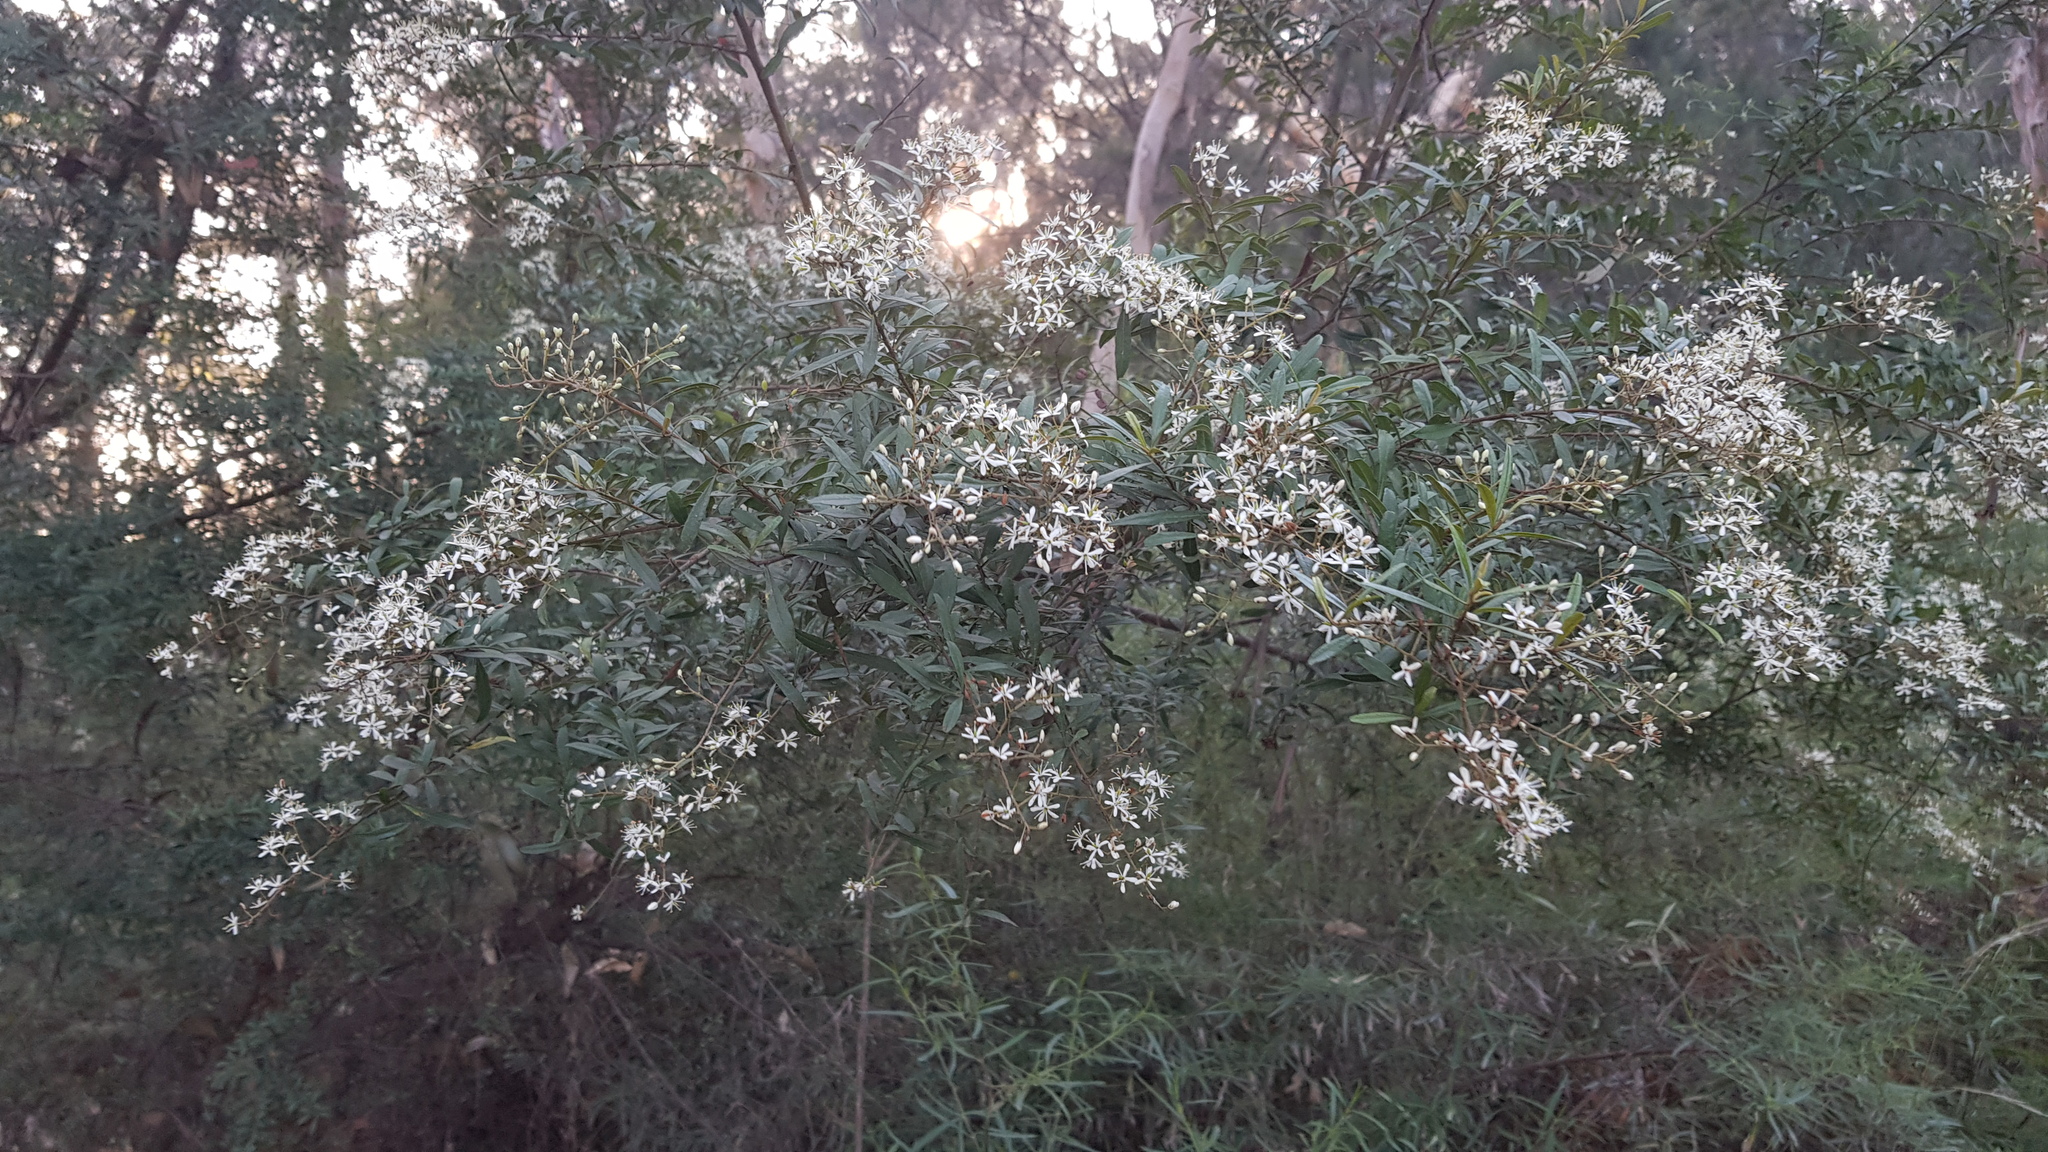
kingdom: Plantae
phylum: Tracheophyta
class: Magnoliopsida
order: Apiales
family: Pittosporaceae
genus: Bursaria
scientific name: Bursaria spinosa
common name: Australian blackthorn
